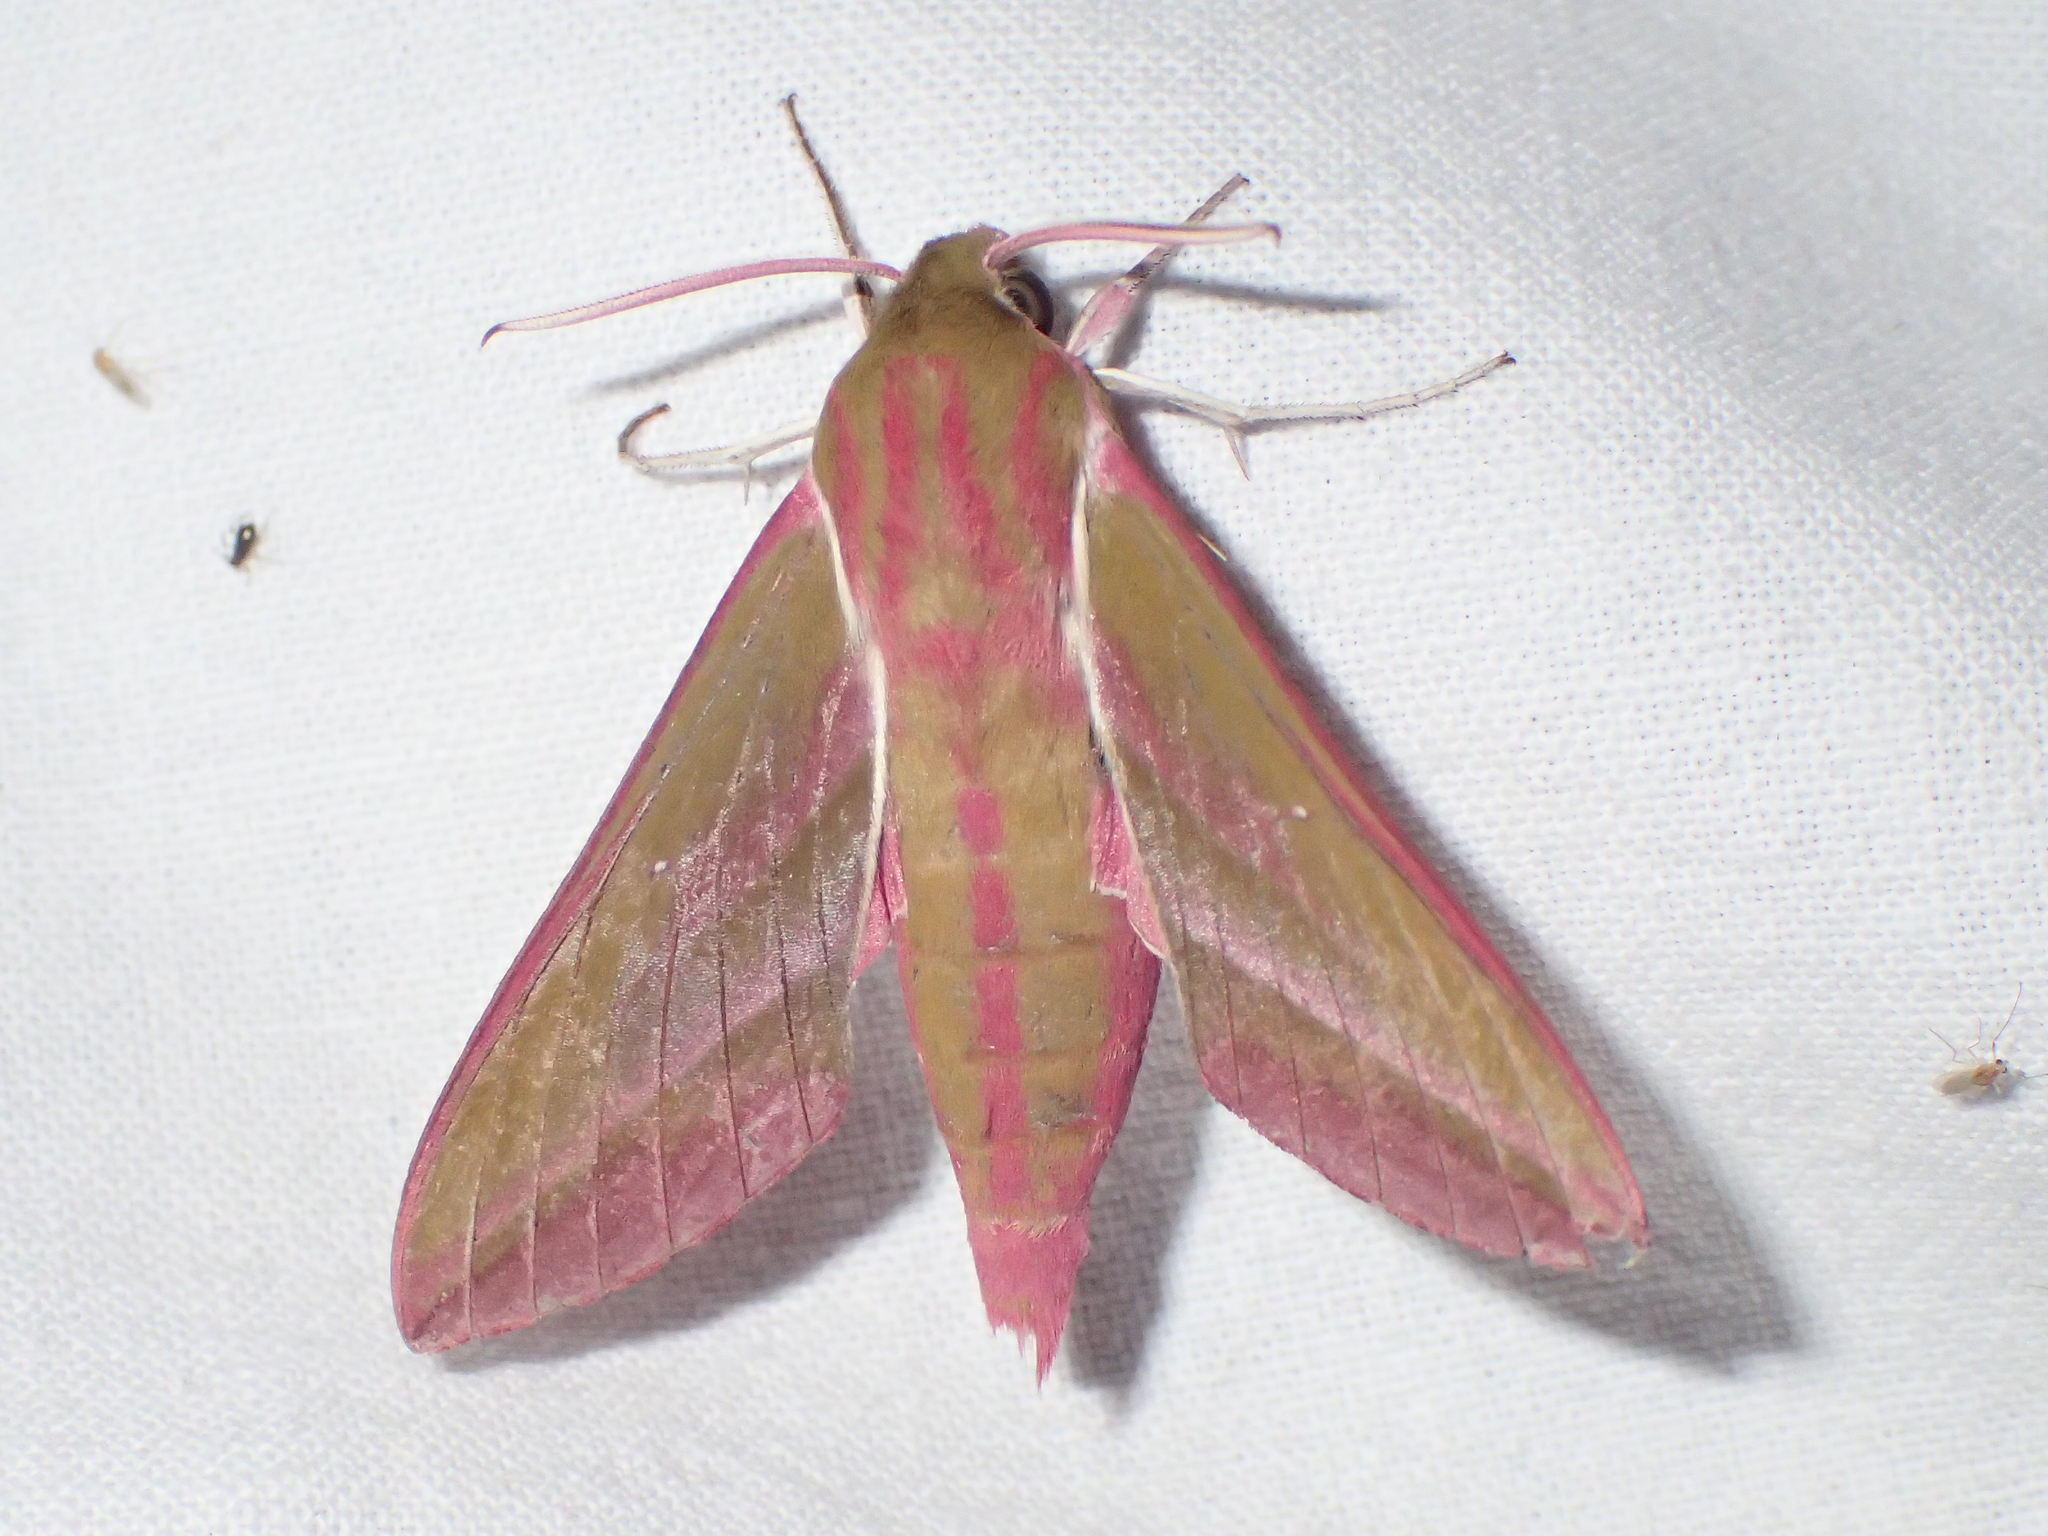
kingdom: Animalia
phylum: Arthropoda
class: Insecta
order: Lepidoptera
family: Sphingidae
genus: Deilephila
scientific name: Deilephila elpenor
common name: Elephant hawk-moth
